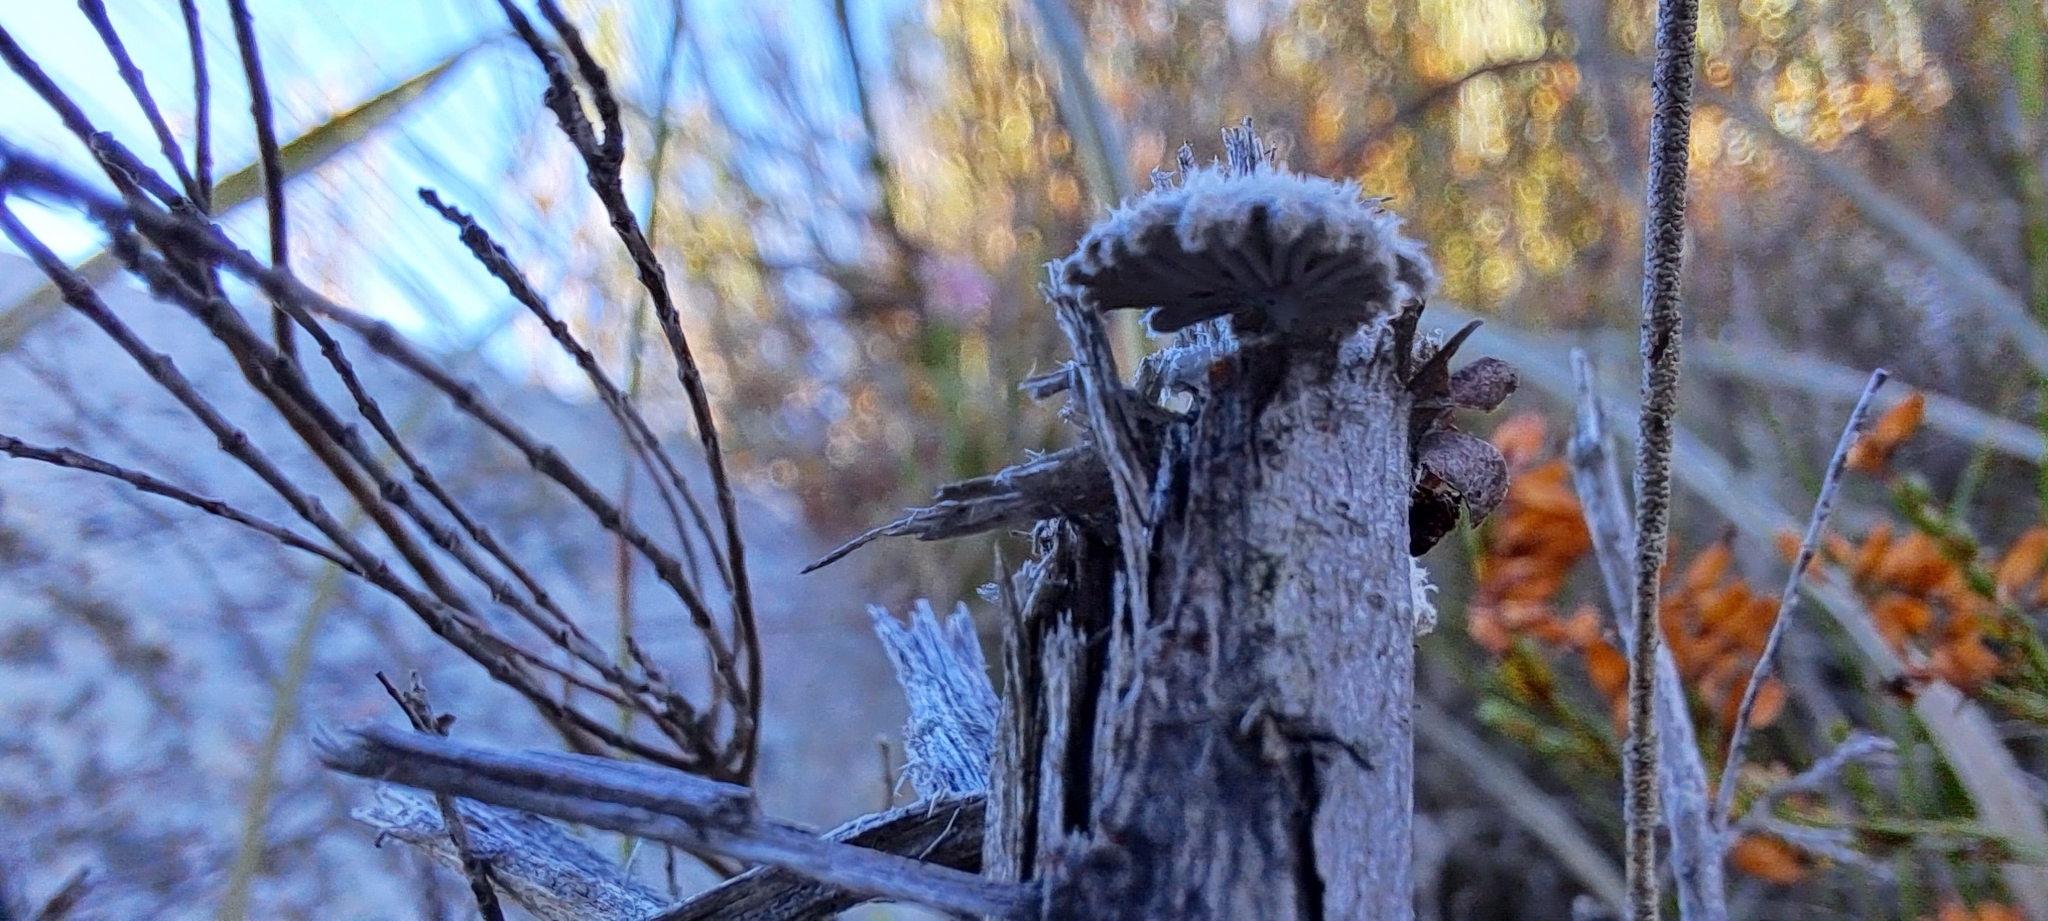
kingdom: Fungi
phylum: Basidiomycota
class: Agaricomycetes
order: Agaricales
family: Schizophyllaceae
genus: Schizophyllum
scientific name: Schizophyllum commune
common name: Common porecrust
